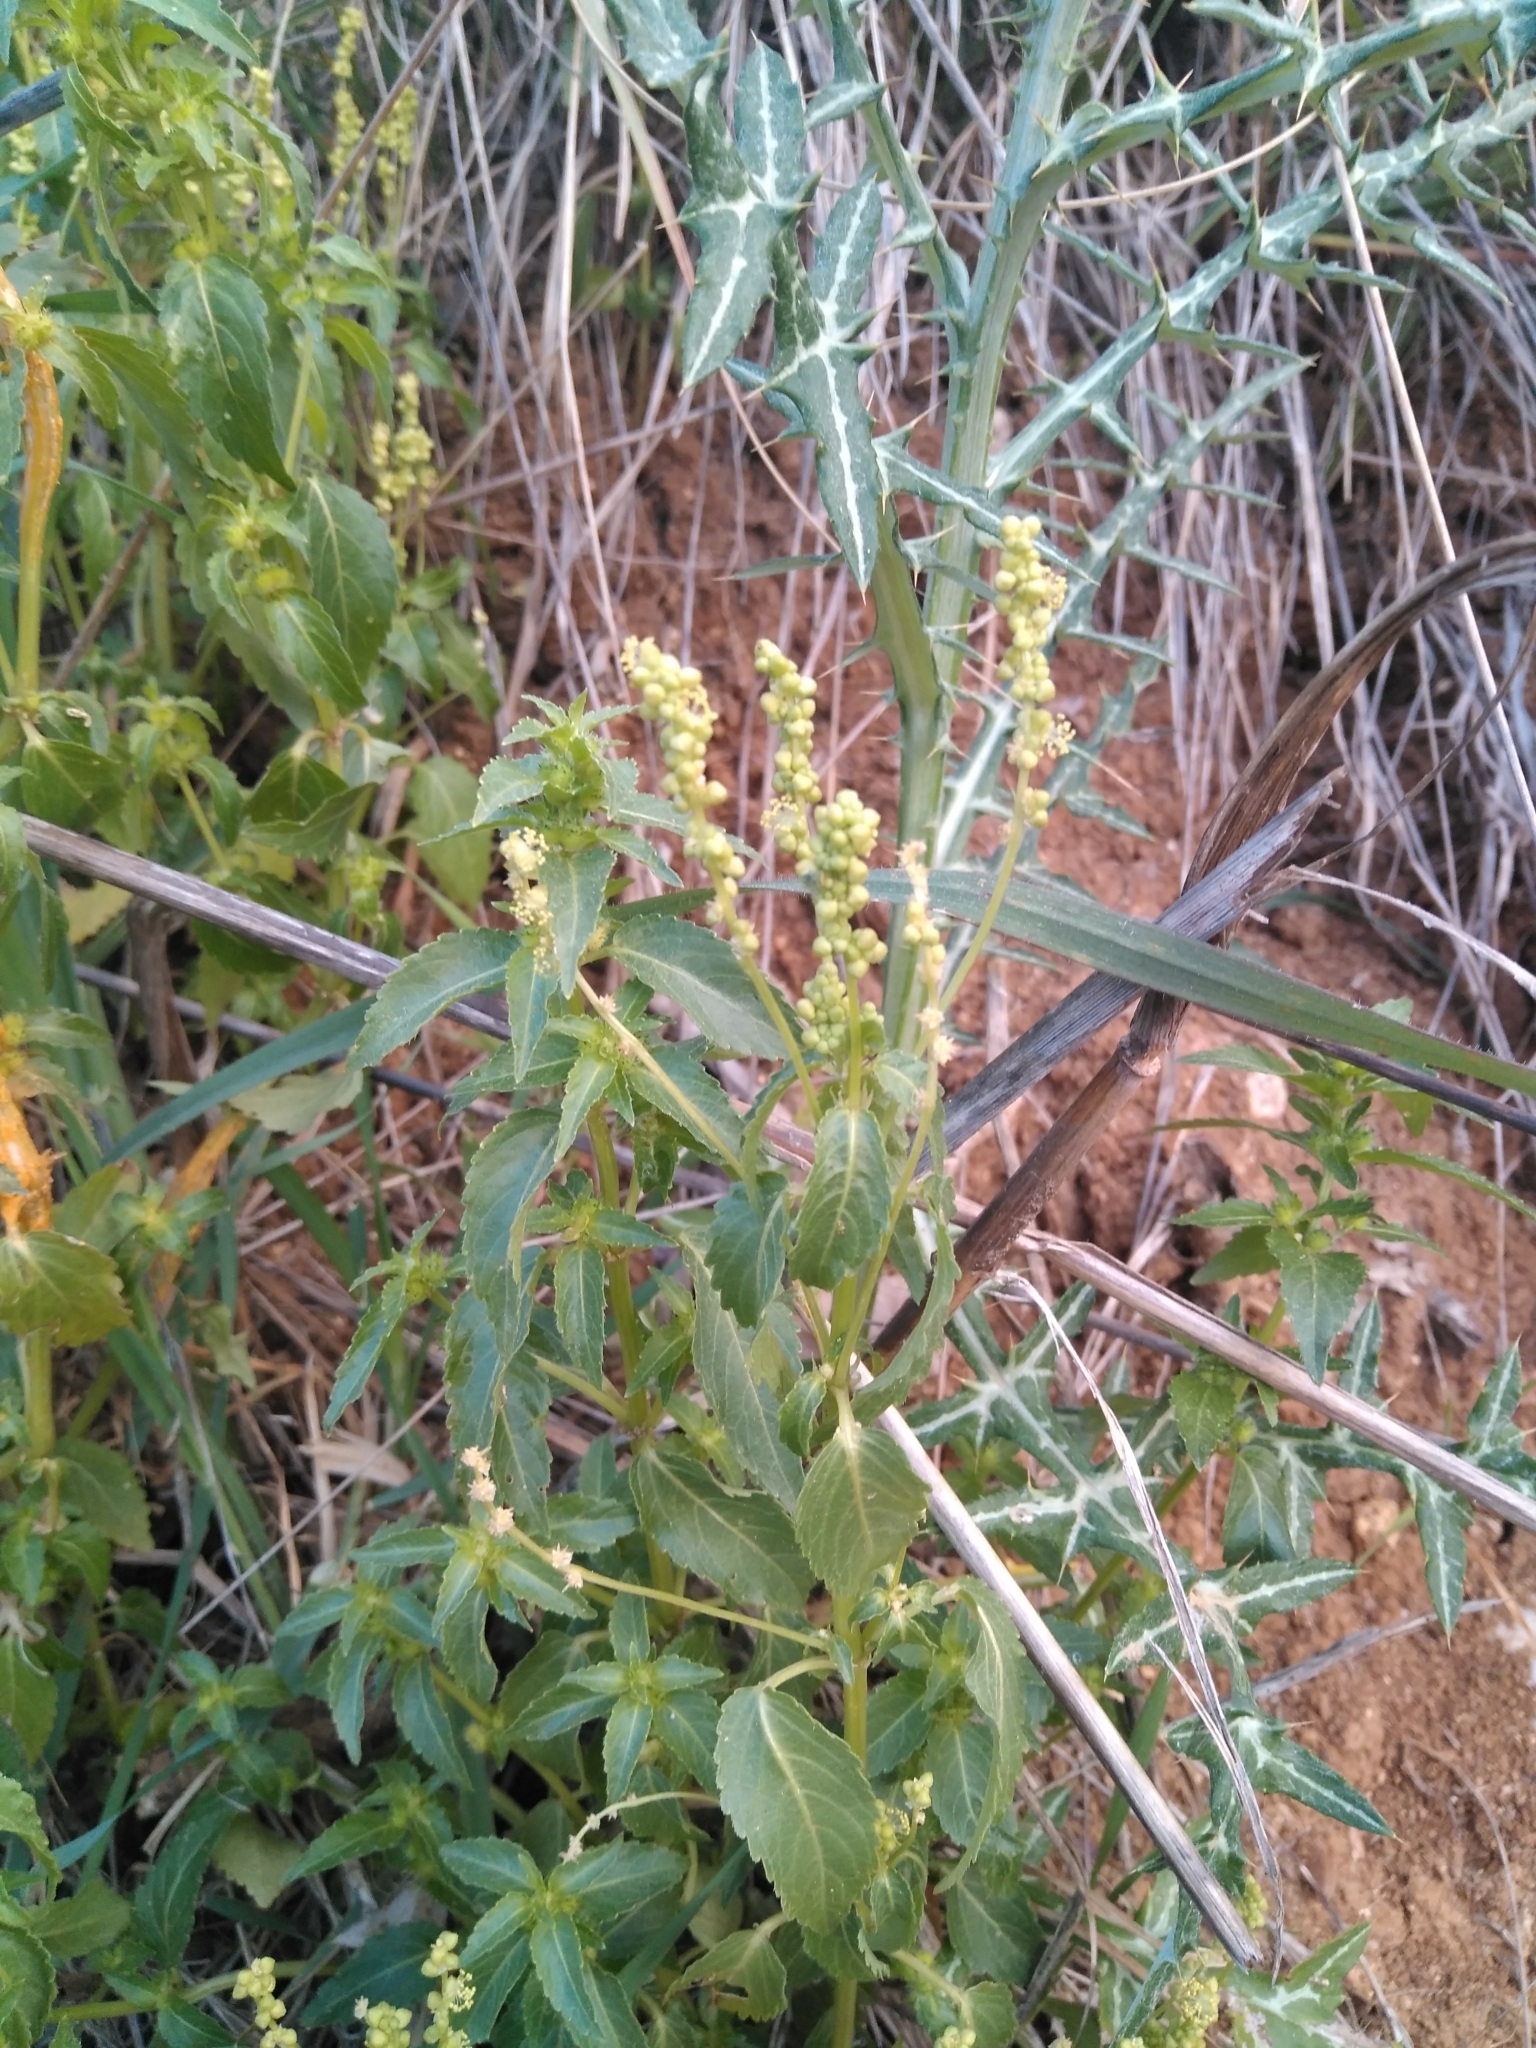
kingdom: Plantae
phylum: Tracheophyta
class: Magnoliopsida
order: Malpighiales
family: Euphorbiaceae
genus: Mercurialis
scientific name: Mercurialis annua
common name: Annual mercury
